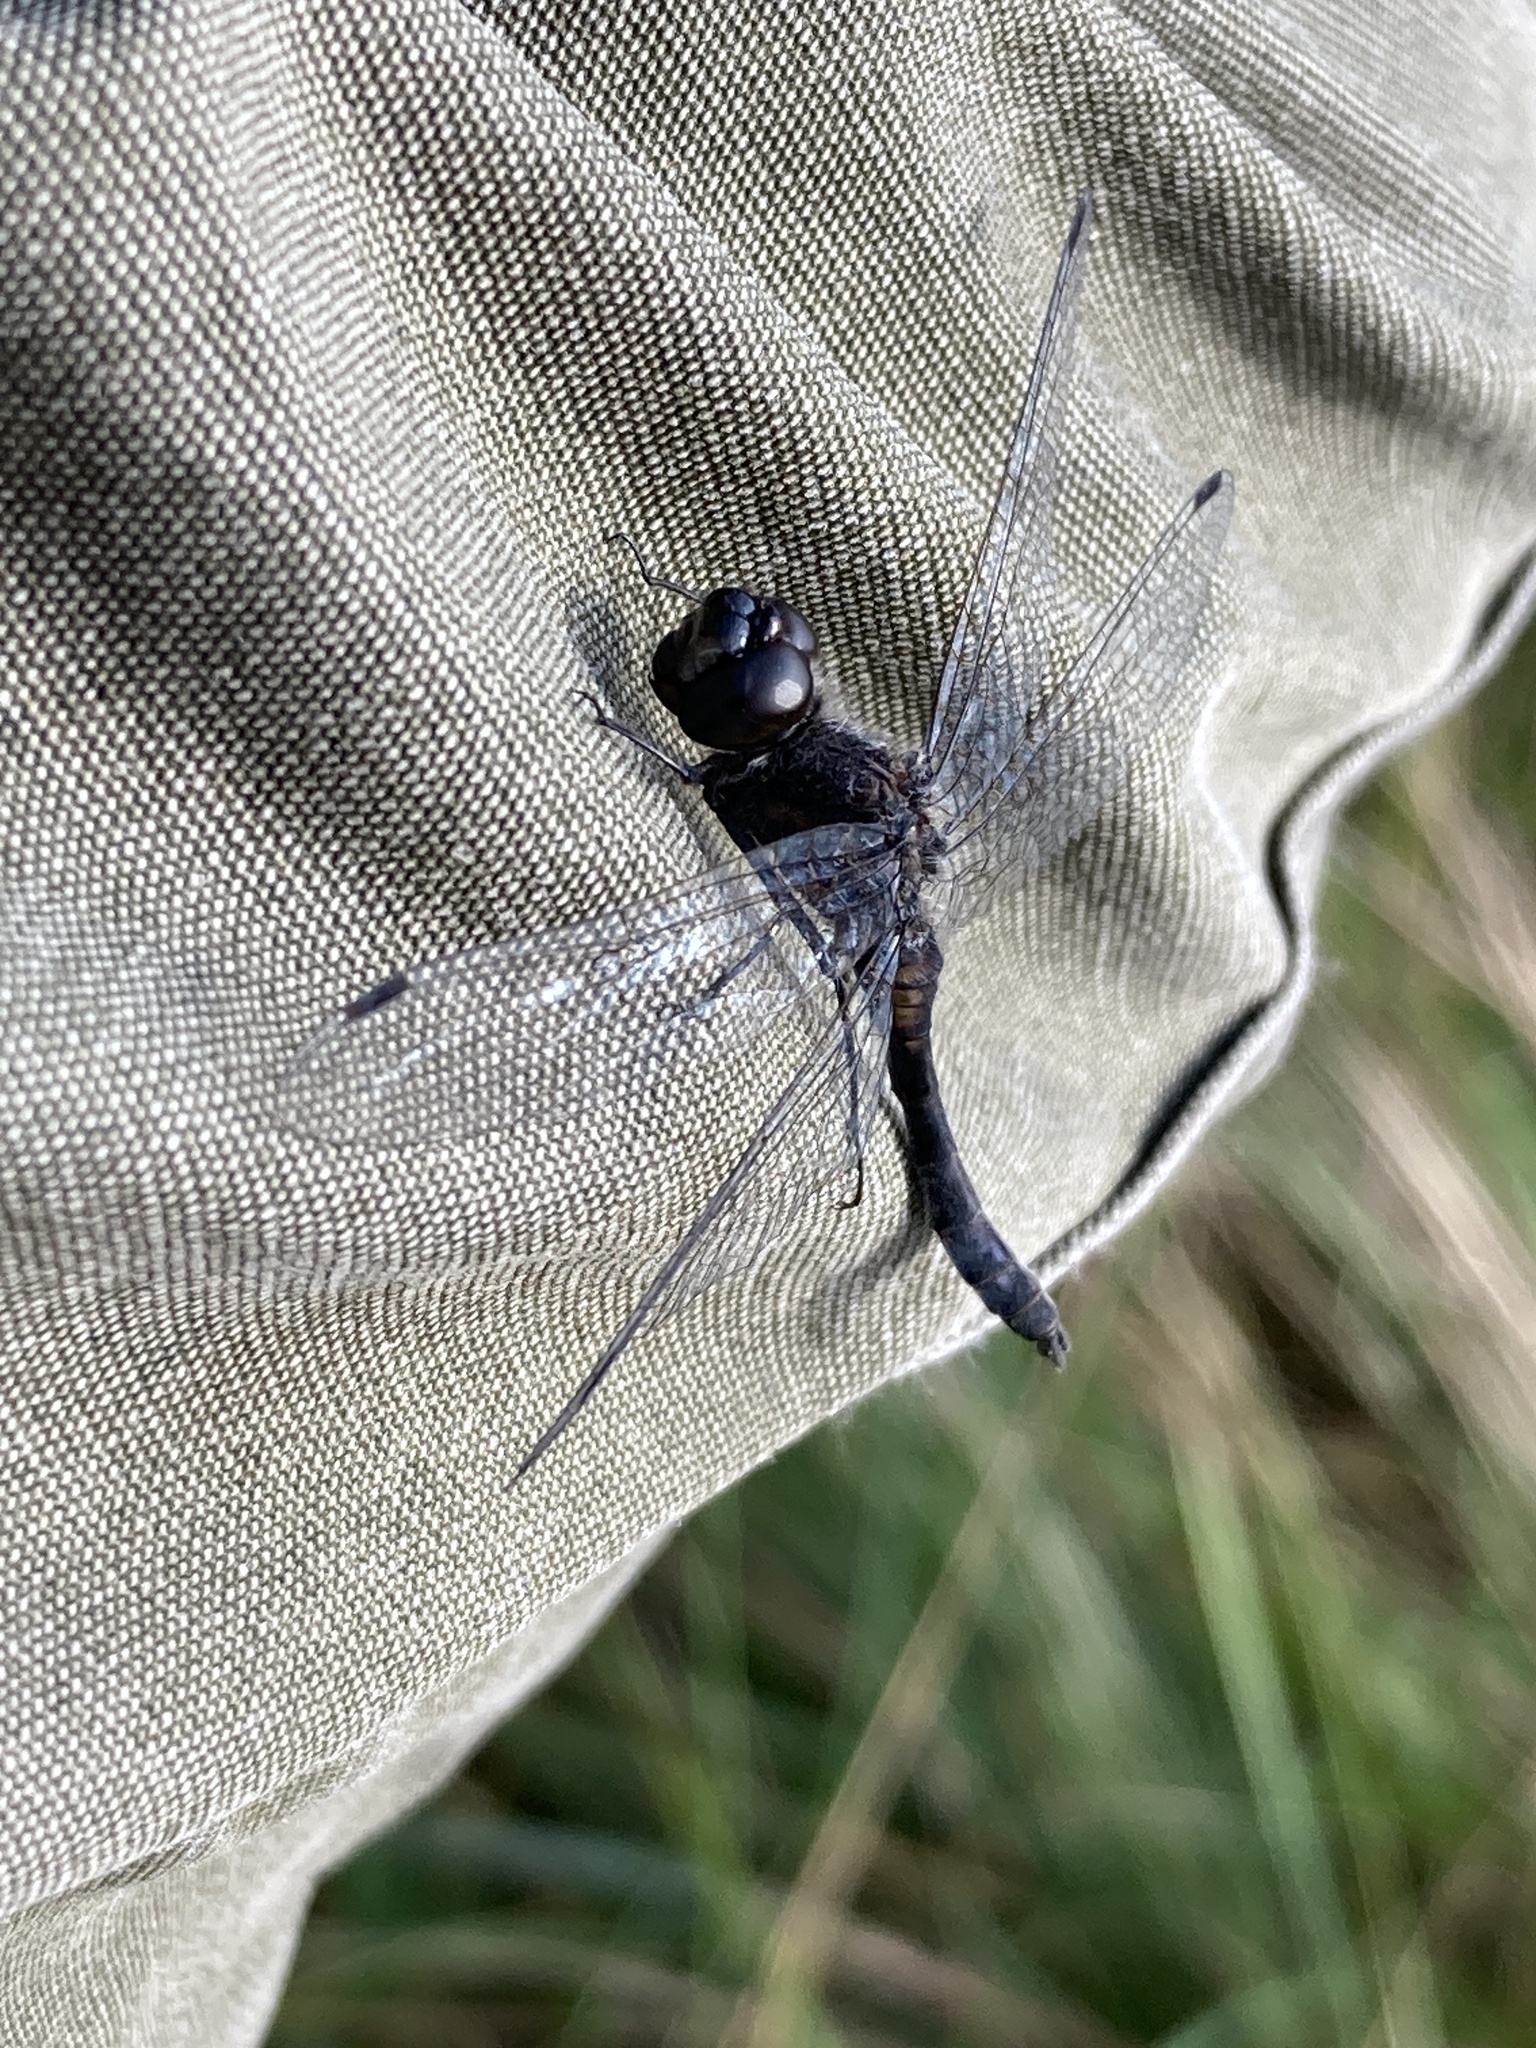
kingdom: Animalia
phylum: Arthropoda
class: Insecta
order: Odonata
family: Libellulidae
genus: Sympetrum
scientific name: Sympetrum danae
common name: Black darter
